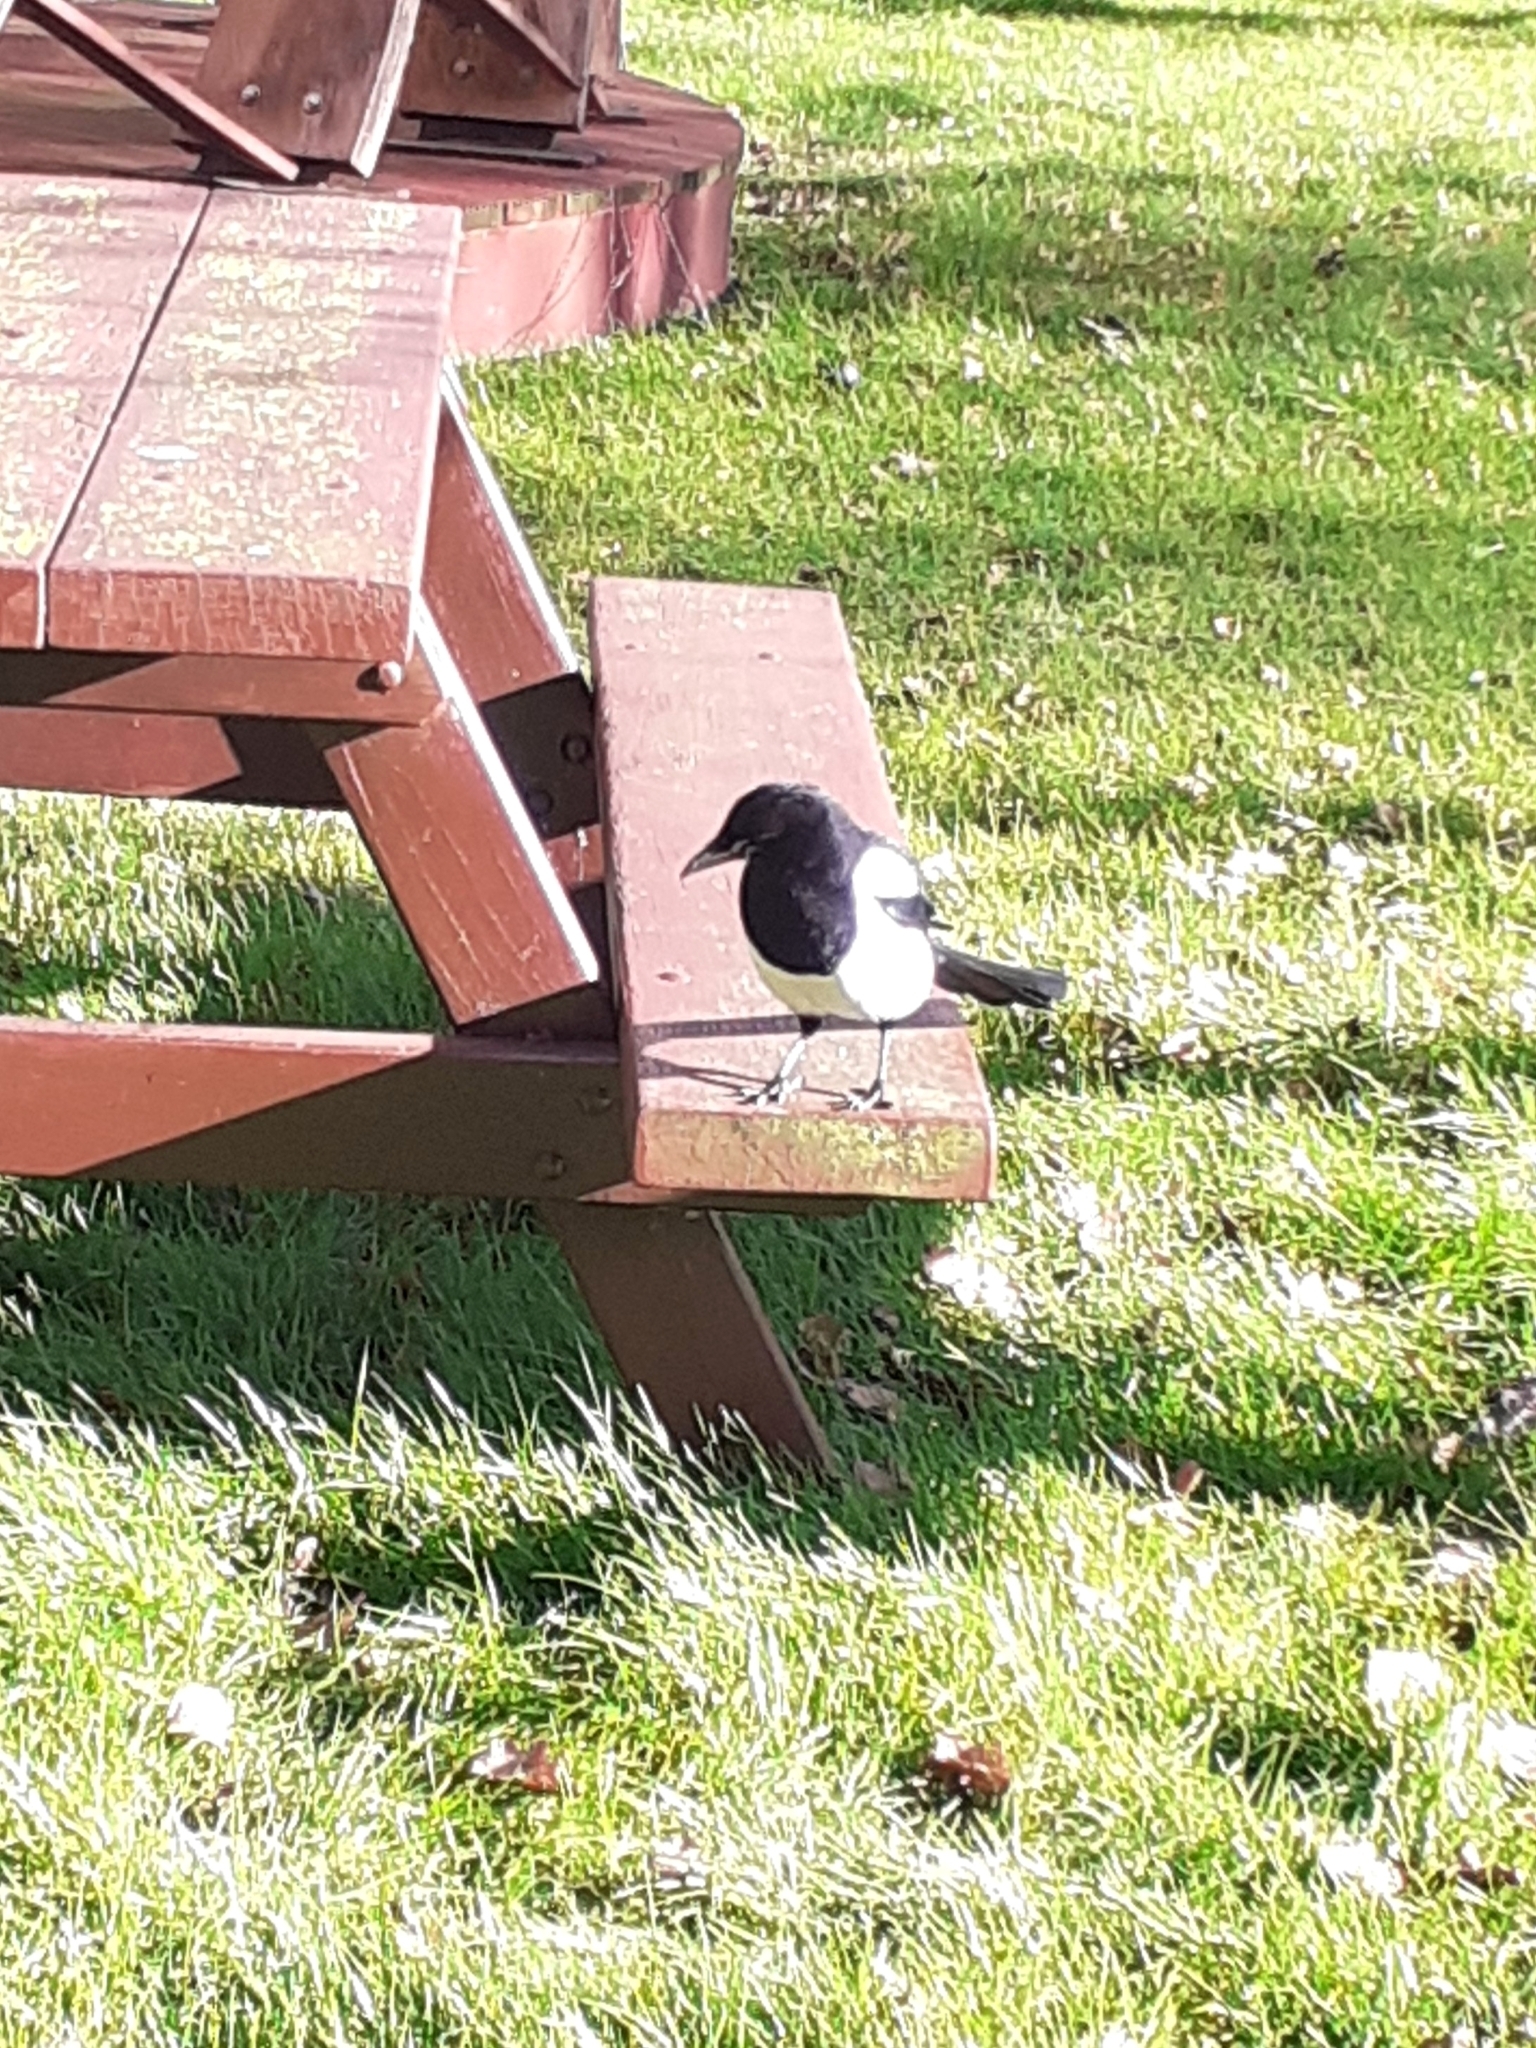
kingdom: Animalia
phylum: Chordata
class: Aves
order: Passeriformes
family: Corvidae
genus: Pica
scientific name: Pica pica
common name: Eurasian magpie
